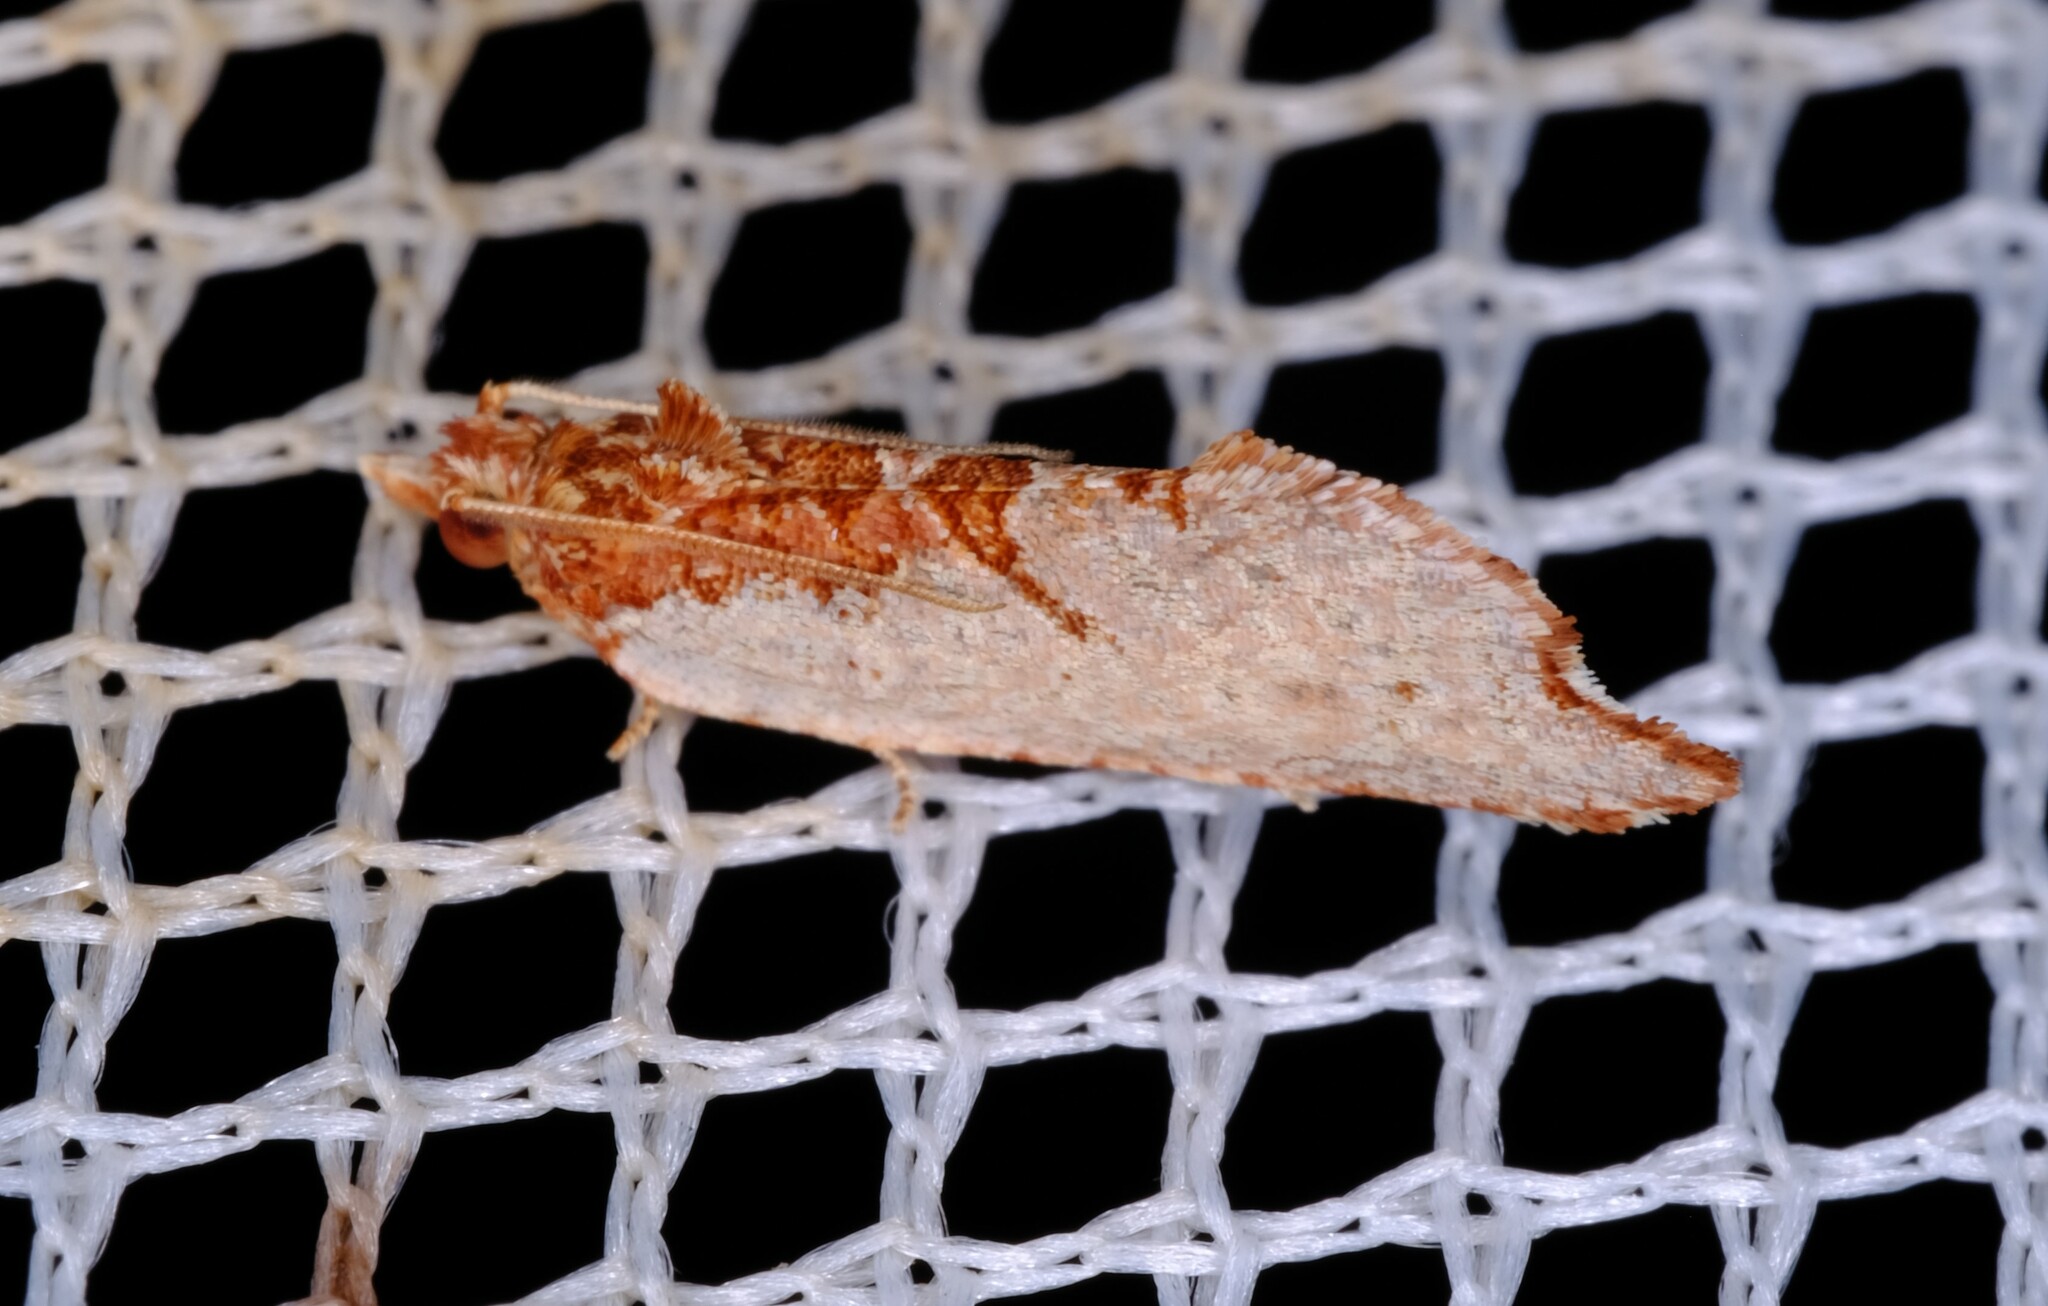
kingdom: Animalia
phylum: Arthropoda
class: Insecta
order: Lepidoptera
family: Tortricidae
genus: Glyphidoptera
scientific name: Glyphidoptera insignana
